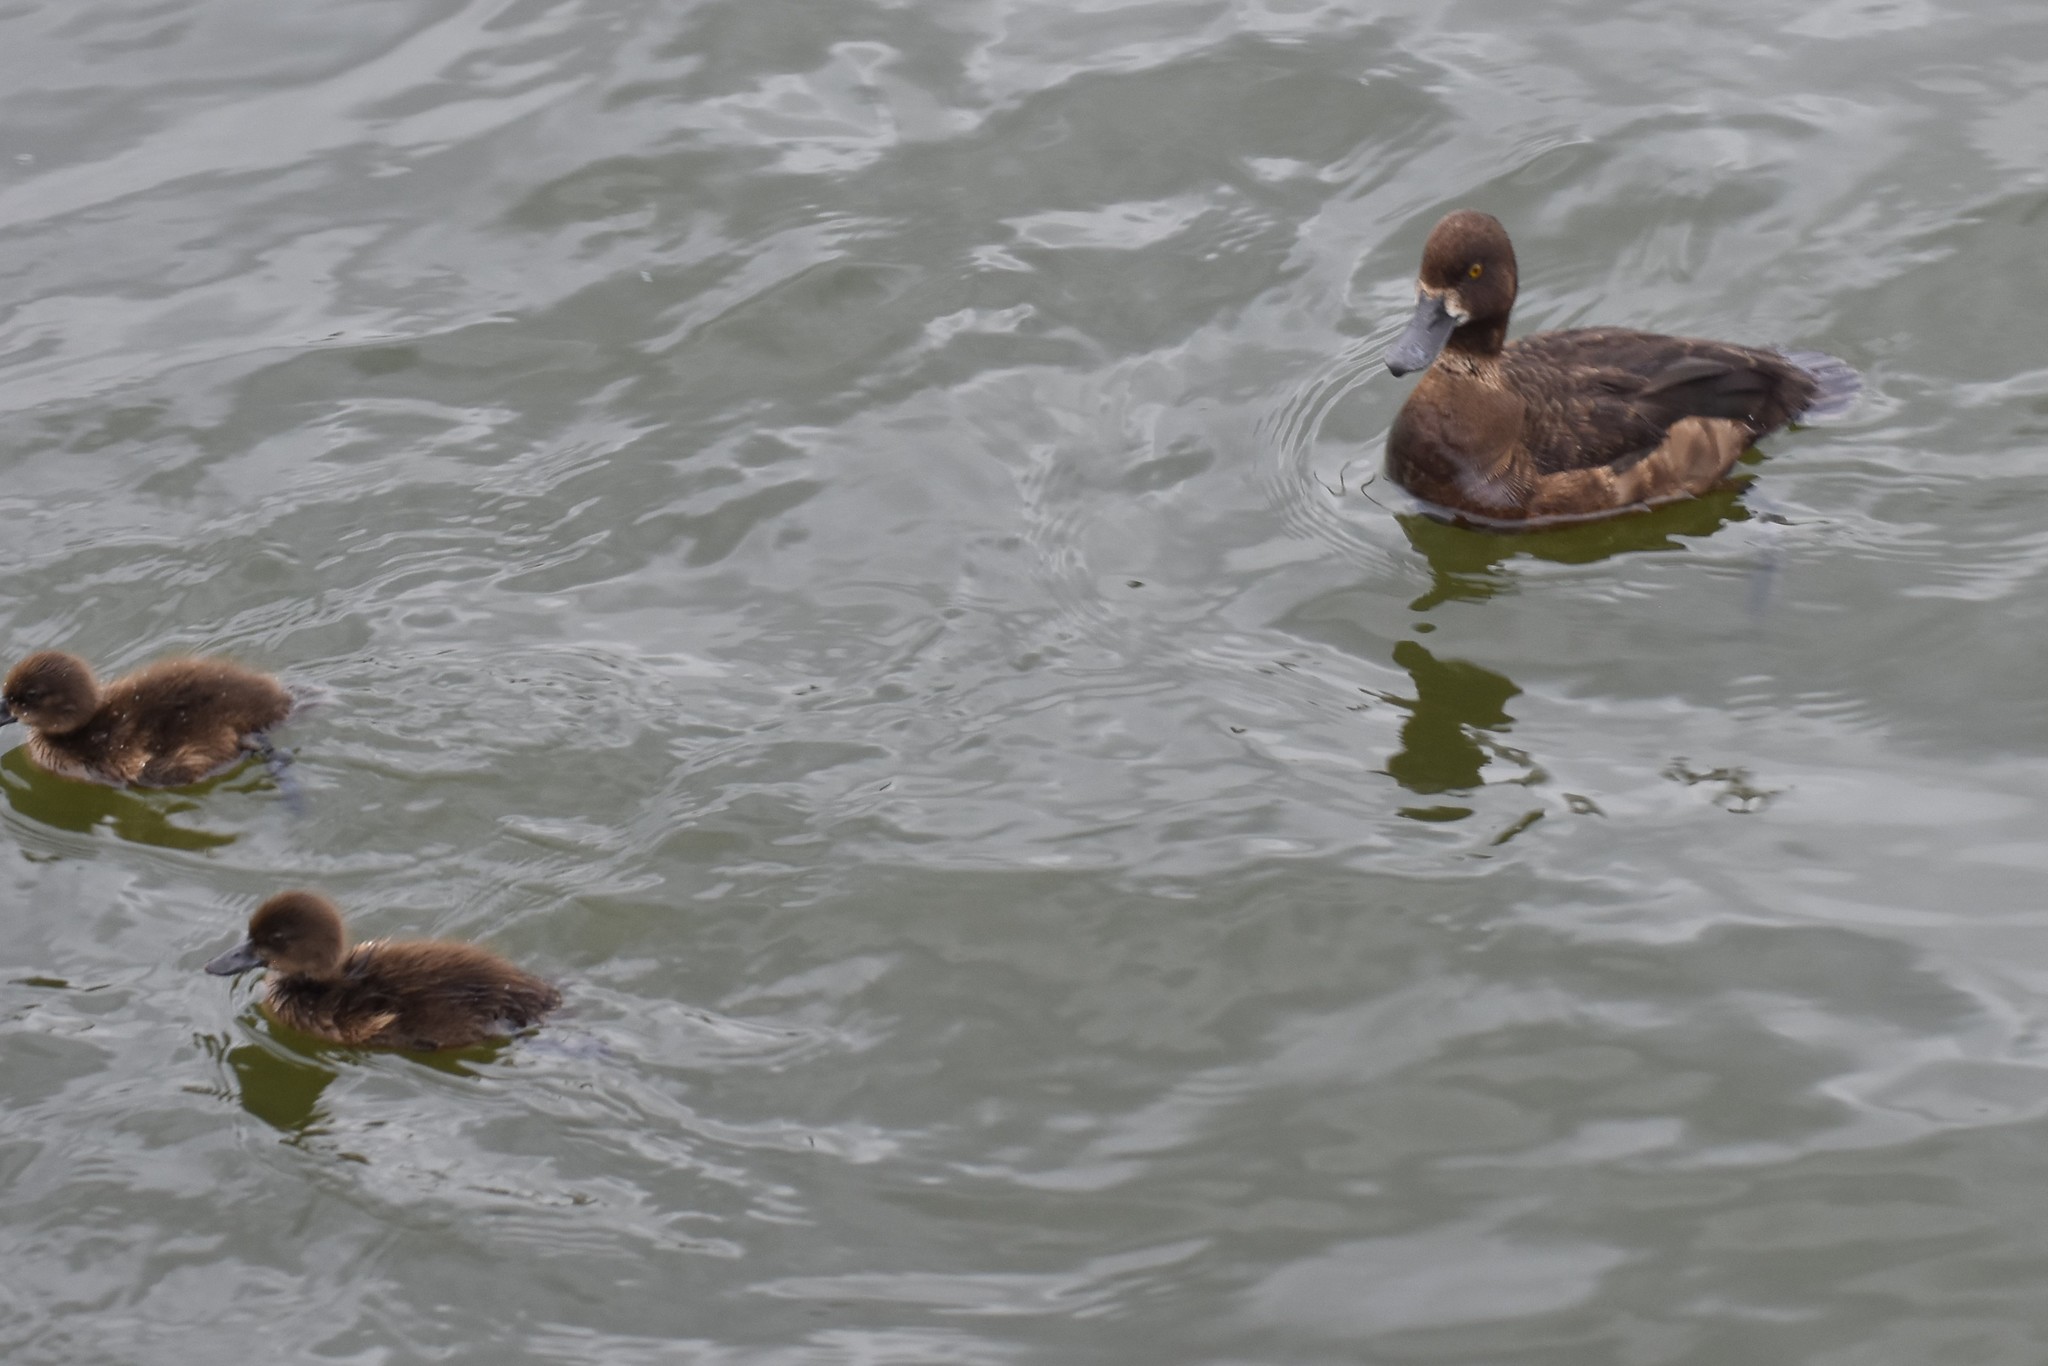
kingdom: Animalia
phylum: Chordata
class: Aves
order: Anseriformes
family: Anatidae
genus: Aythya
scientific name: Aythya fuligula
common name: Tufted duck
